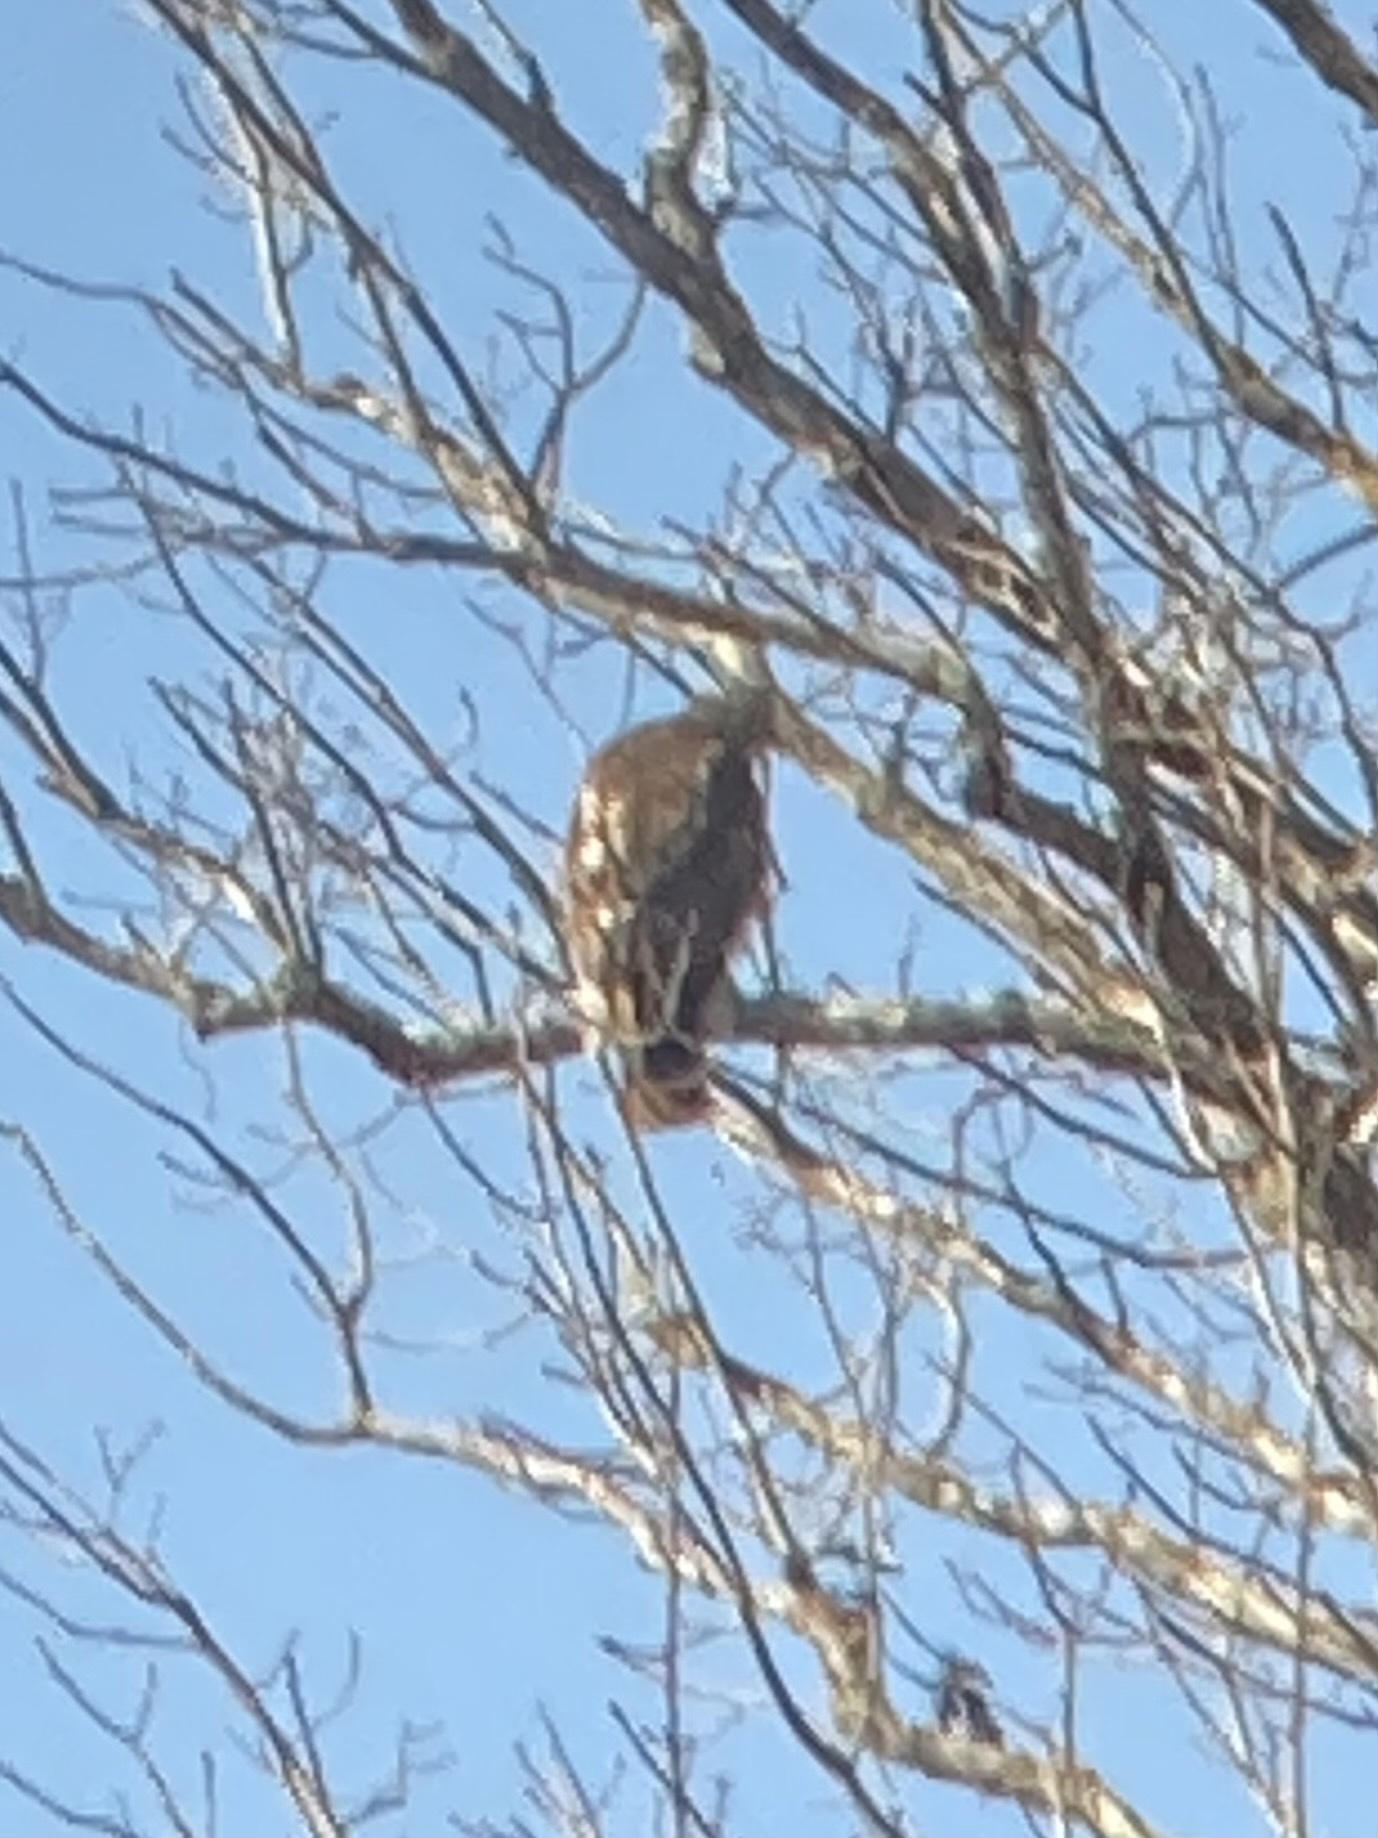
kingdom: Animalia
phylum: Chordata
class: Aves
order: Accipitriformes
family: Accipitridae
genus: Buteo
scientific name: Buteo lineatus
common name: Red-shouldered hawk
